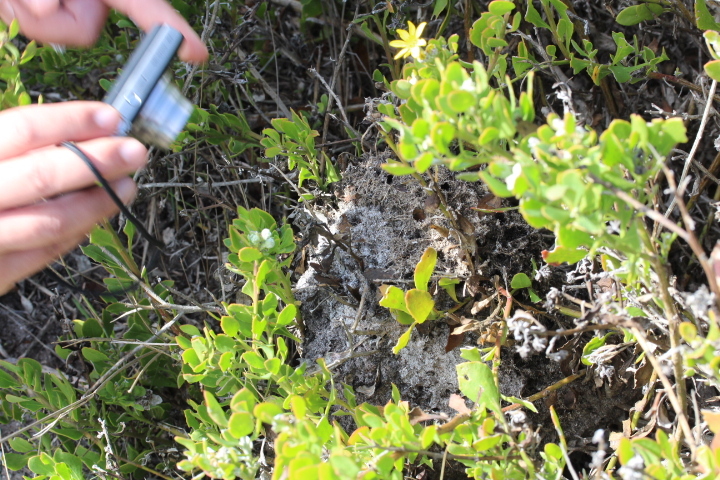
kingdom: Plantae
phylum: Tracheophyta
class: Magnoliopsida
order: Asterales
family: Asteraceae
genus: Osteospermum
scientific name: Osteospermum moniliferum
